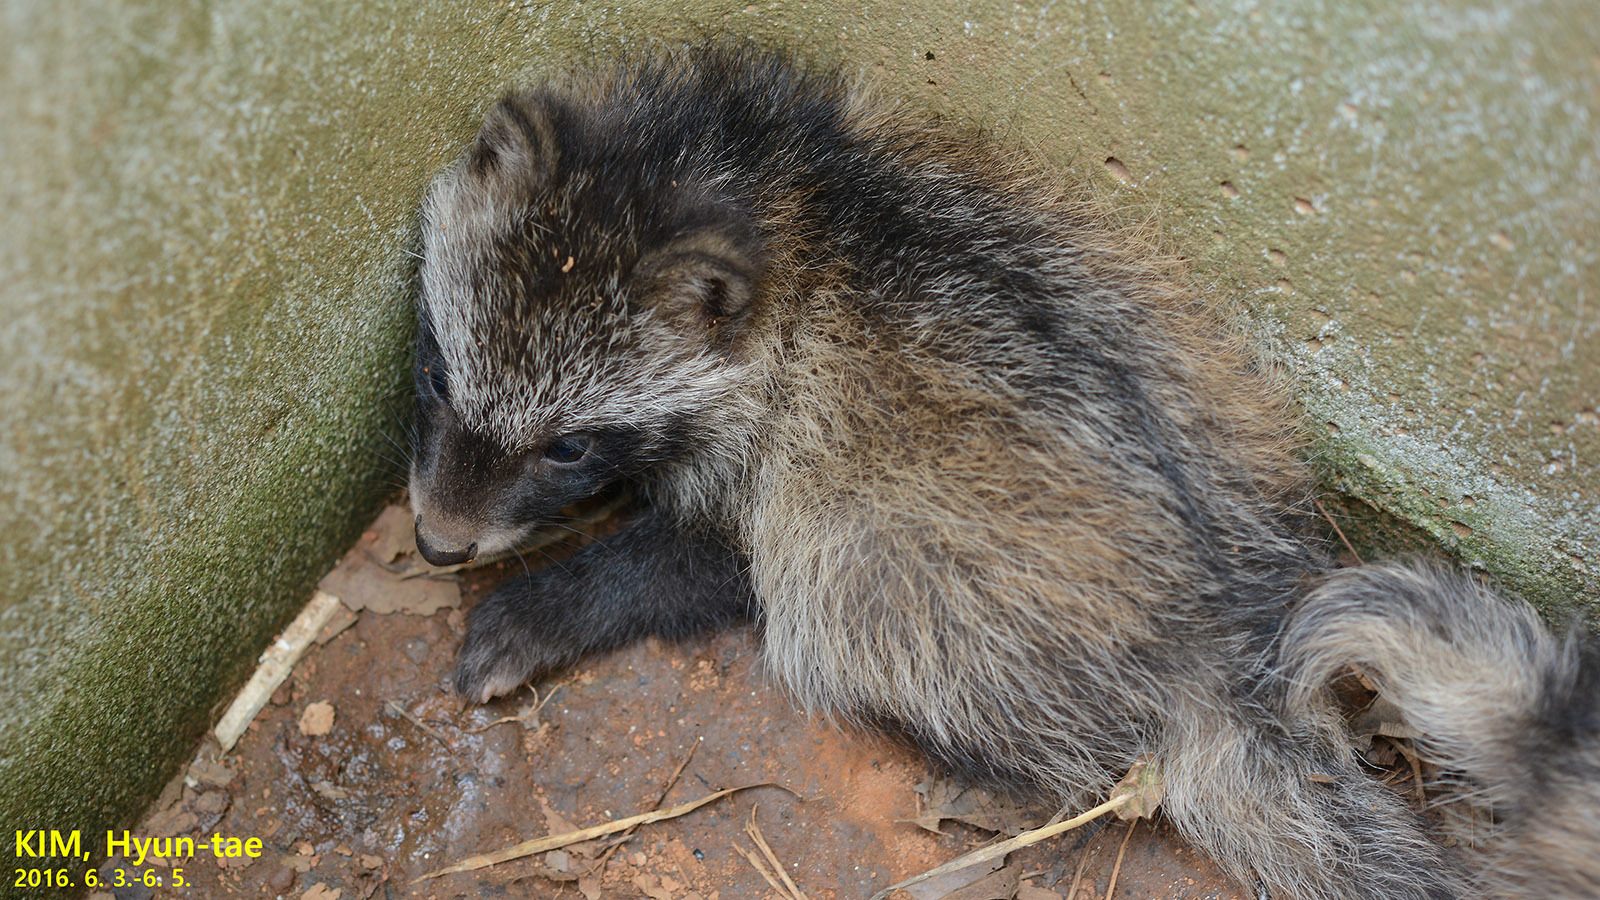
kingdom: Animalia
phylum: Chordata
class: Mammalia
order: Carnivora
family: Canidae
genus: Nyctereutes
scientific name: Nyctereutes procyonoides
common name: Raccoon dog
